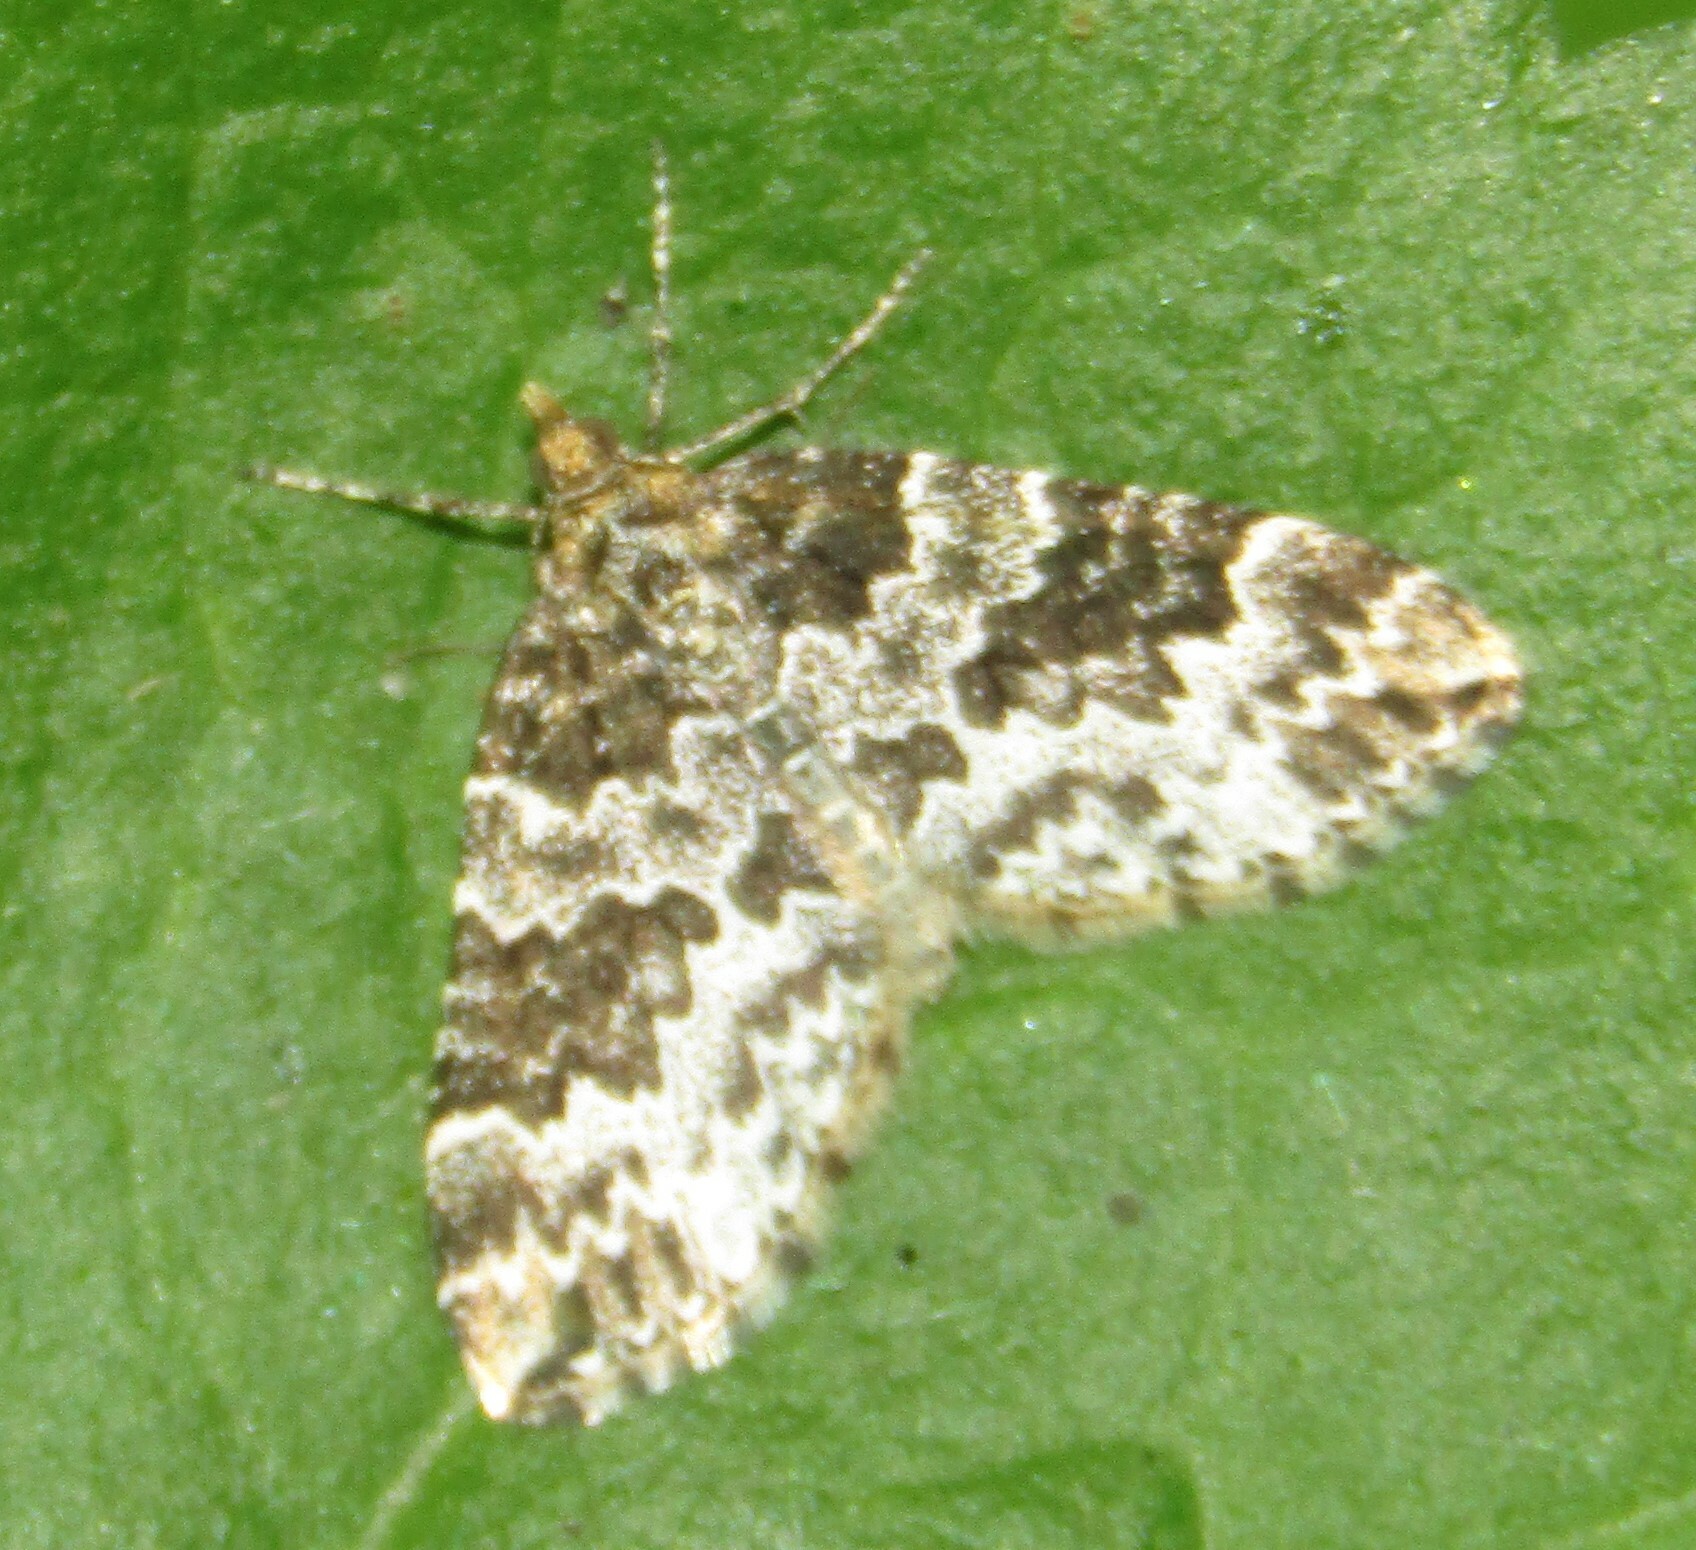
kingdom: Animalia
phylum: Arthropoda
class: Insecta
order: Lepidoptera
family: Geometridae
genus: Electrophaes
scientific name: Electrophaes corylata
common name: Broken-barred carpet
